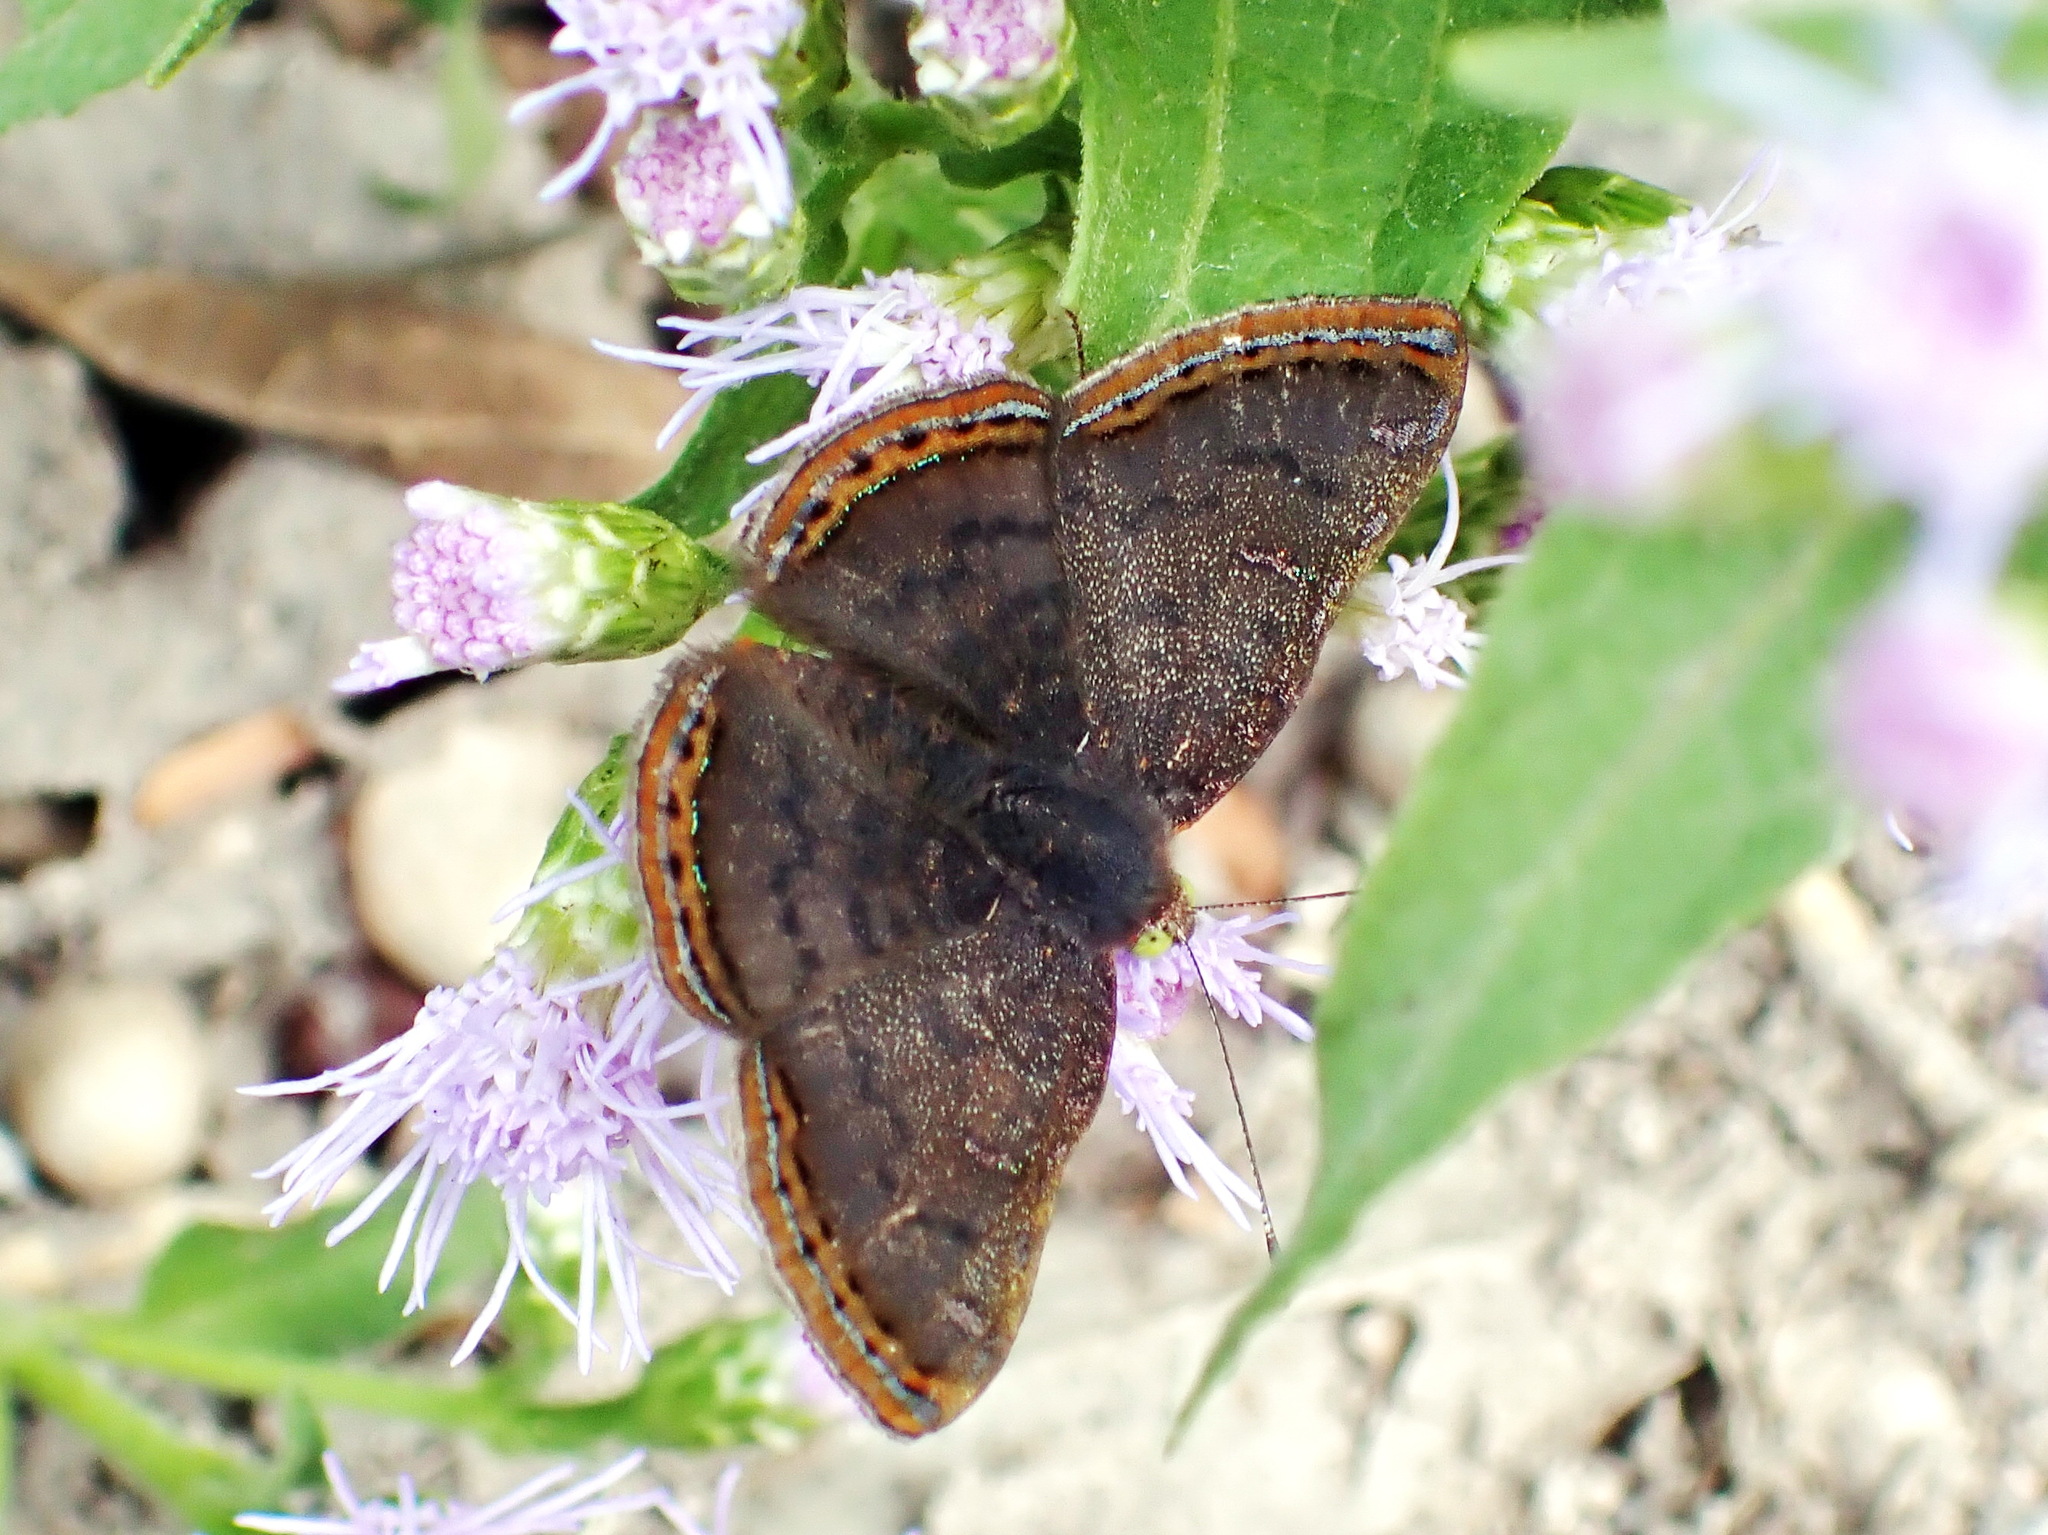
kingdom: Animalia
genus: Caria
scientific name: Caria ino
